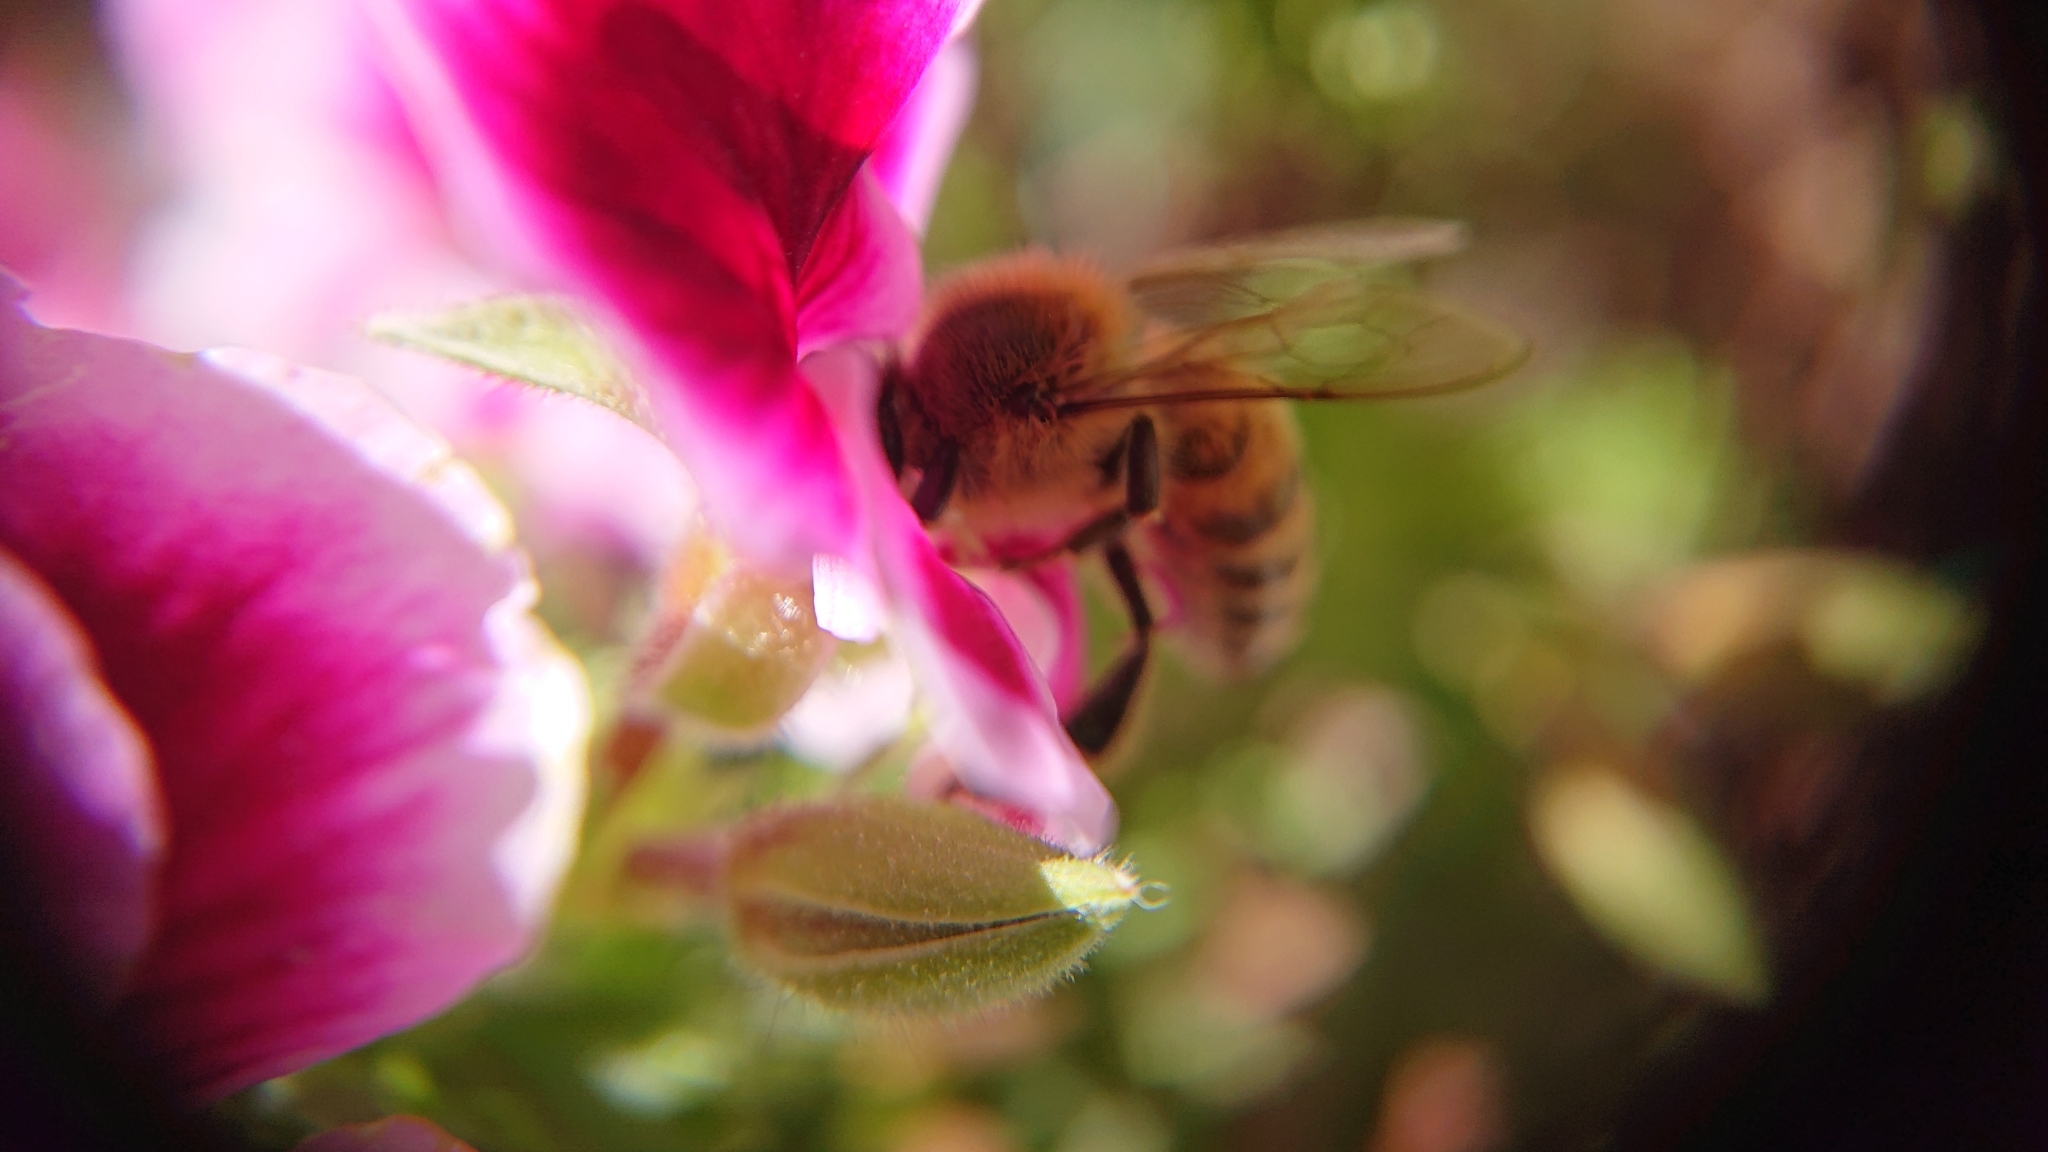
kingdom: Animalia
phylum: Arthropoda
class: Insecta
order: Hymenoptera
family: Apidae
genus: Apis
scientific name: Apis mellifera
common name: Honey bee
